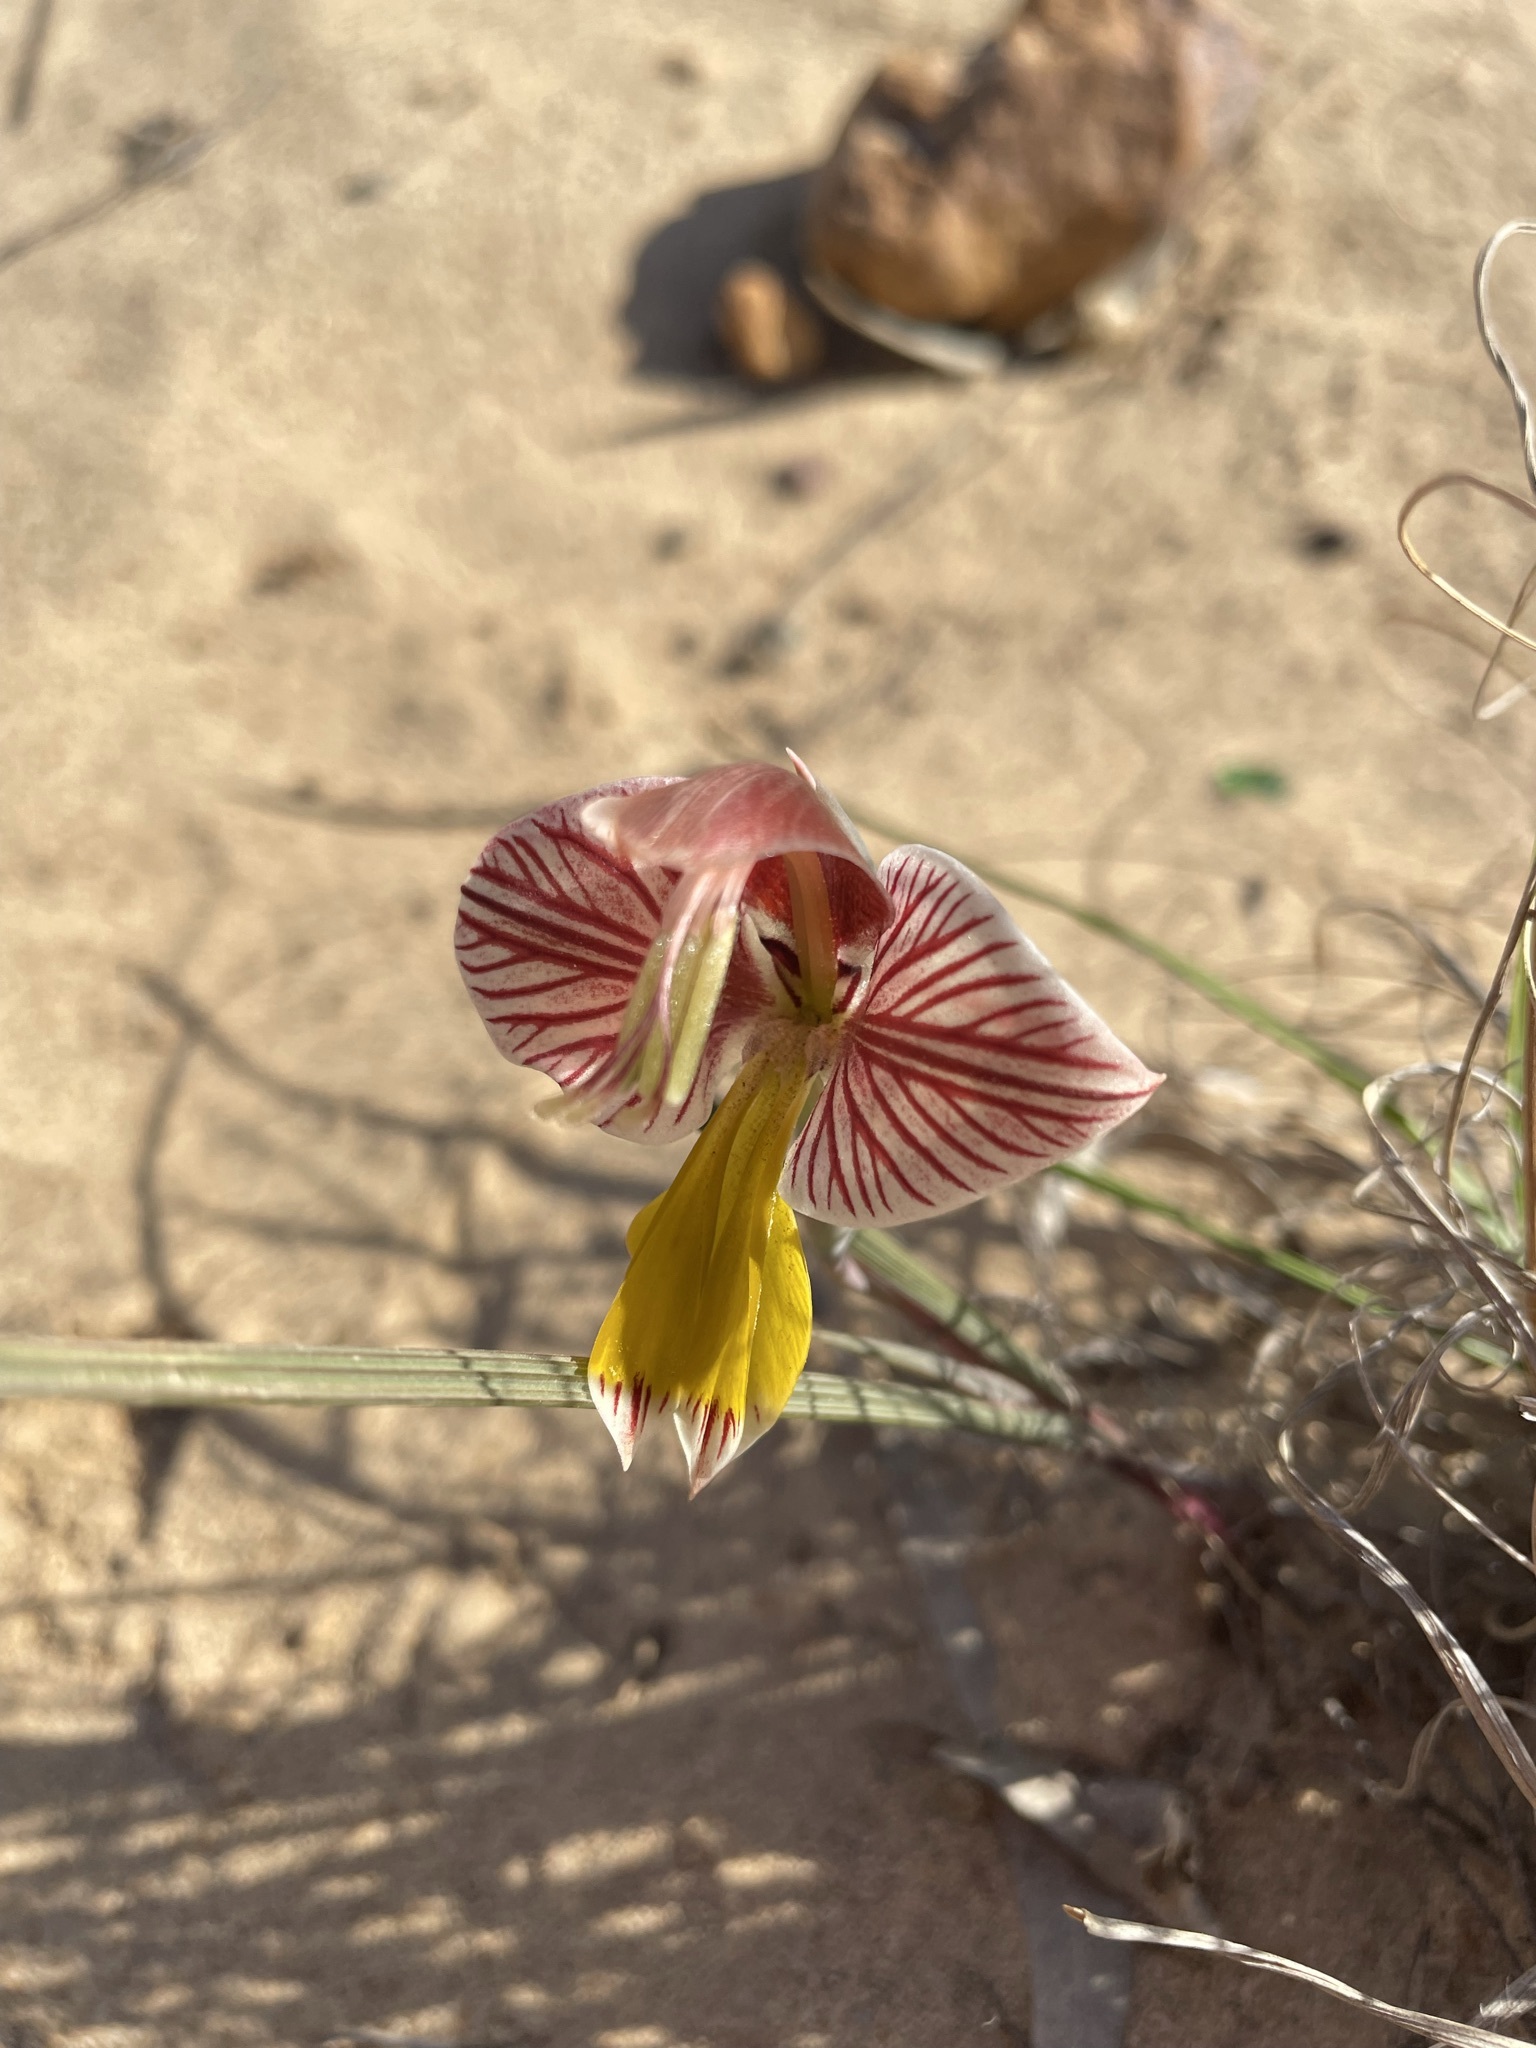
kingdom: Plantae
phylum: Tracheophyta
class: Liliopsida
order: Asparagales
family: Iridaceae
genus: Gladiolus
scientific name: Gladiolus watermeyeri
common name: Sweet kalkoentjie
